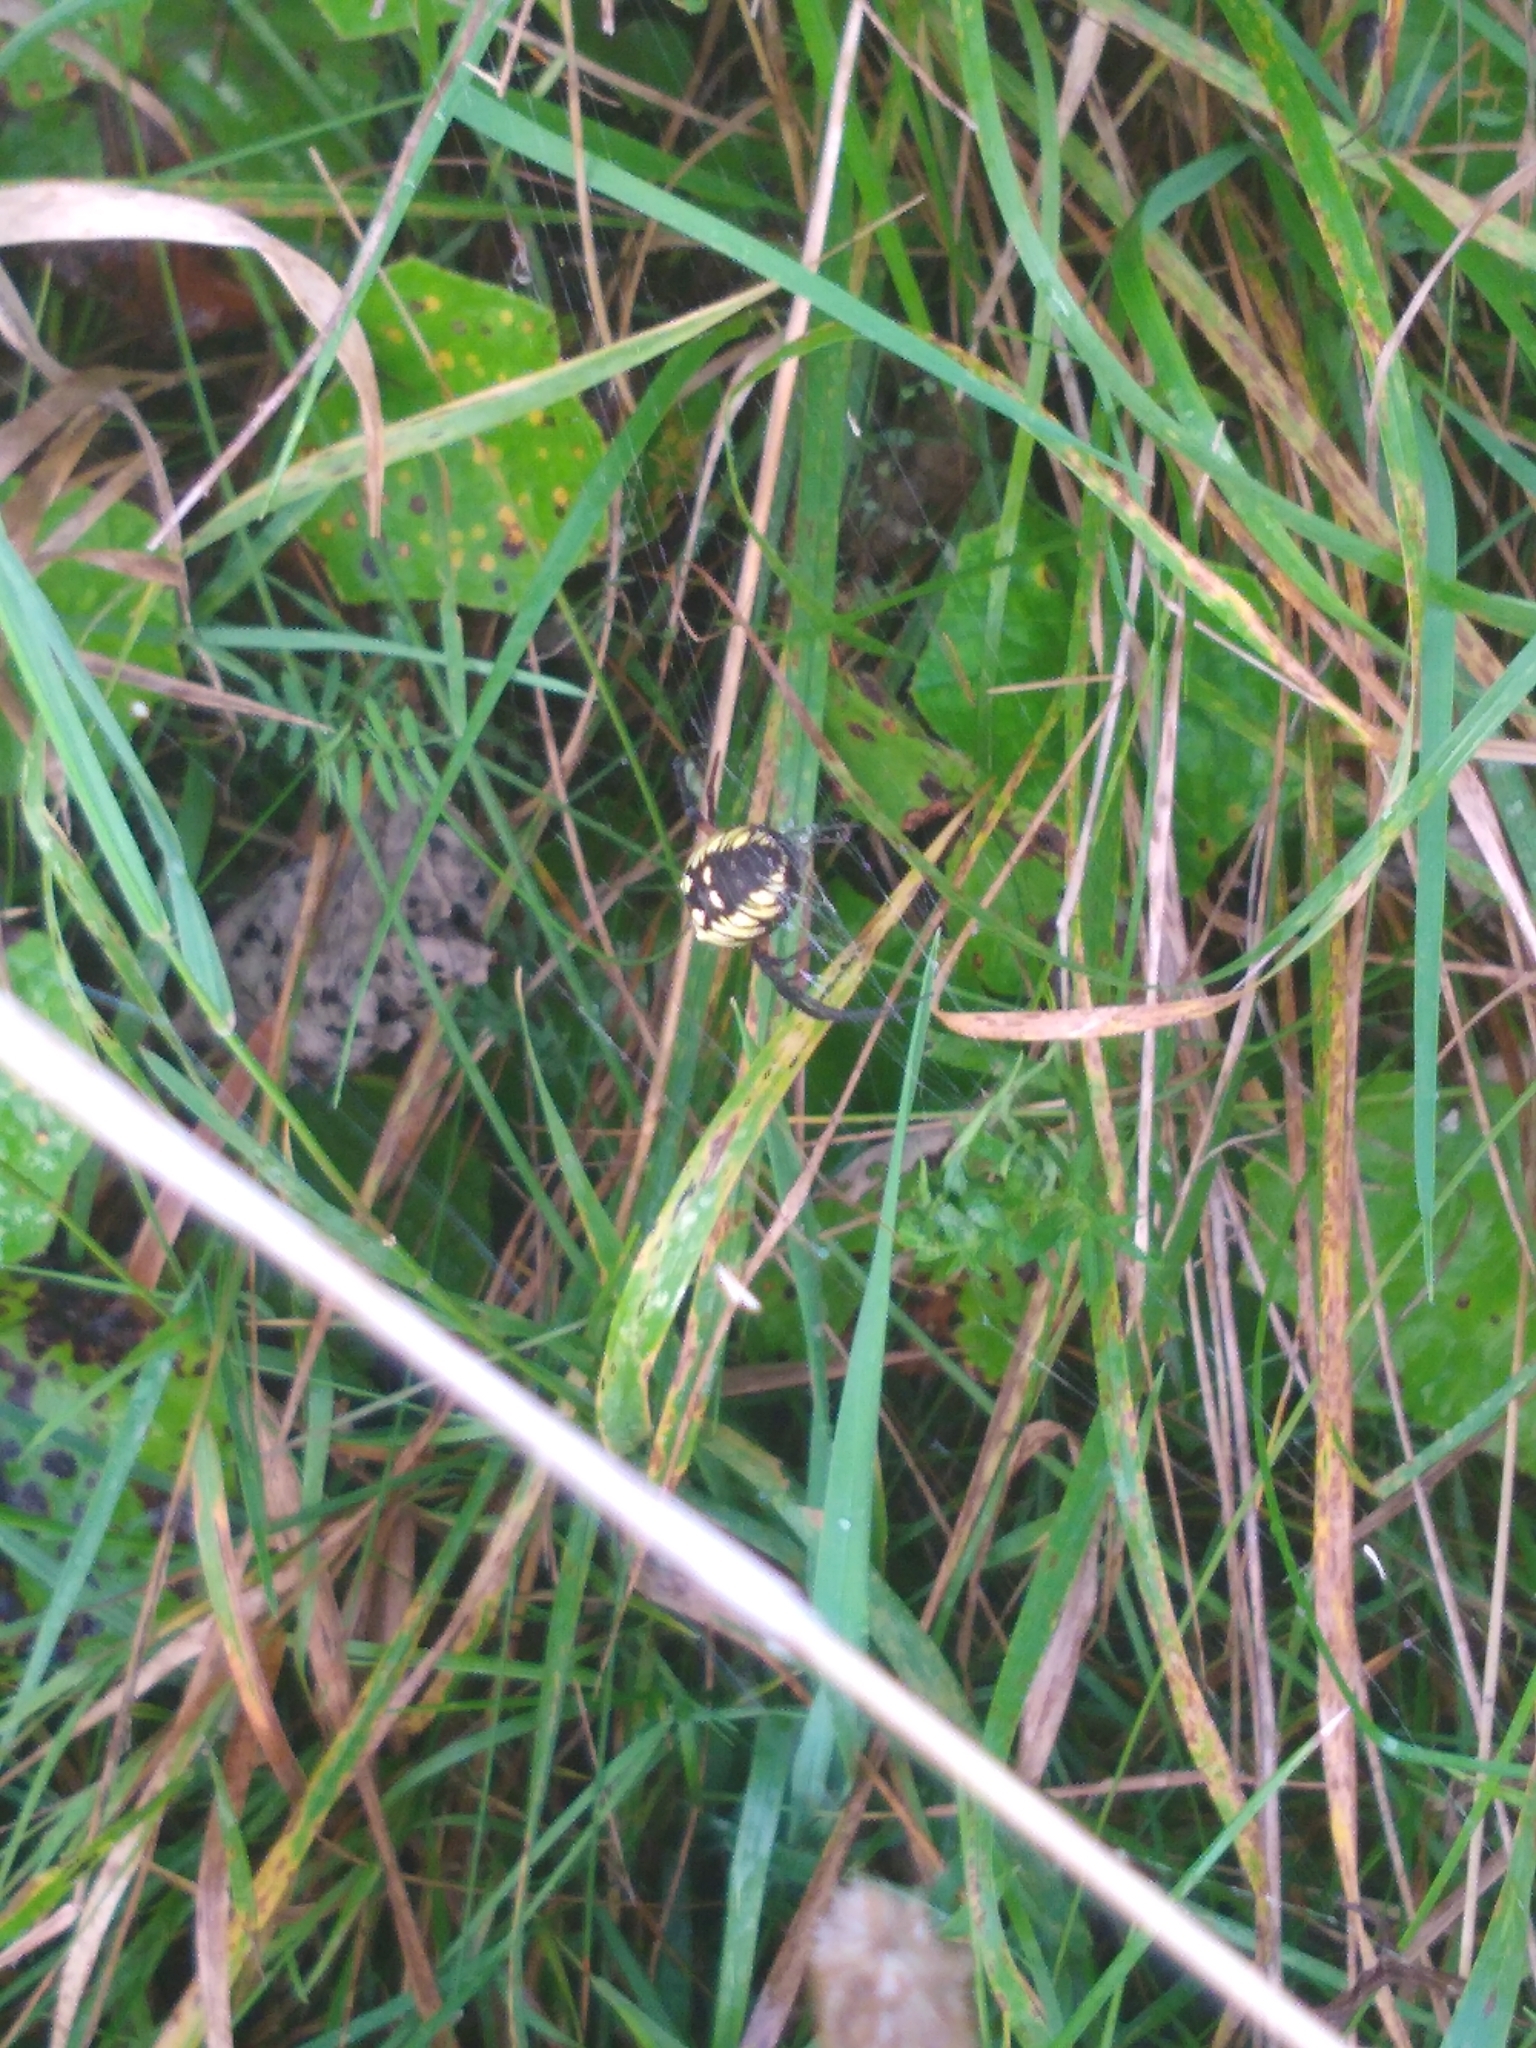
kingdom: Animalia
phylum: Arthropoda
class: Arachnida
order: Araneae
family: Araneidae
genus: Argiope
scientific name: Argiope aurantia
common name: Orb weavers
